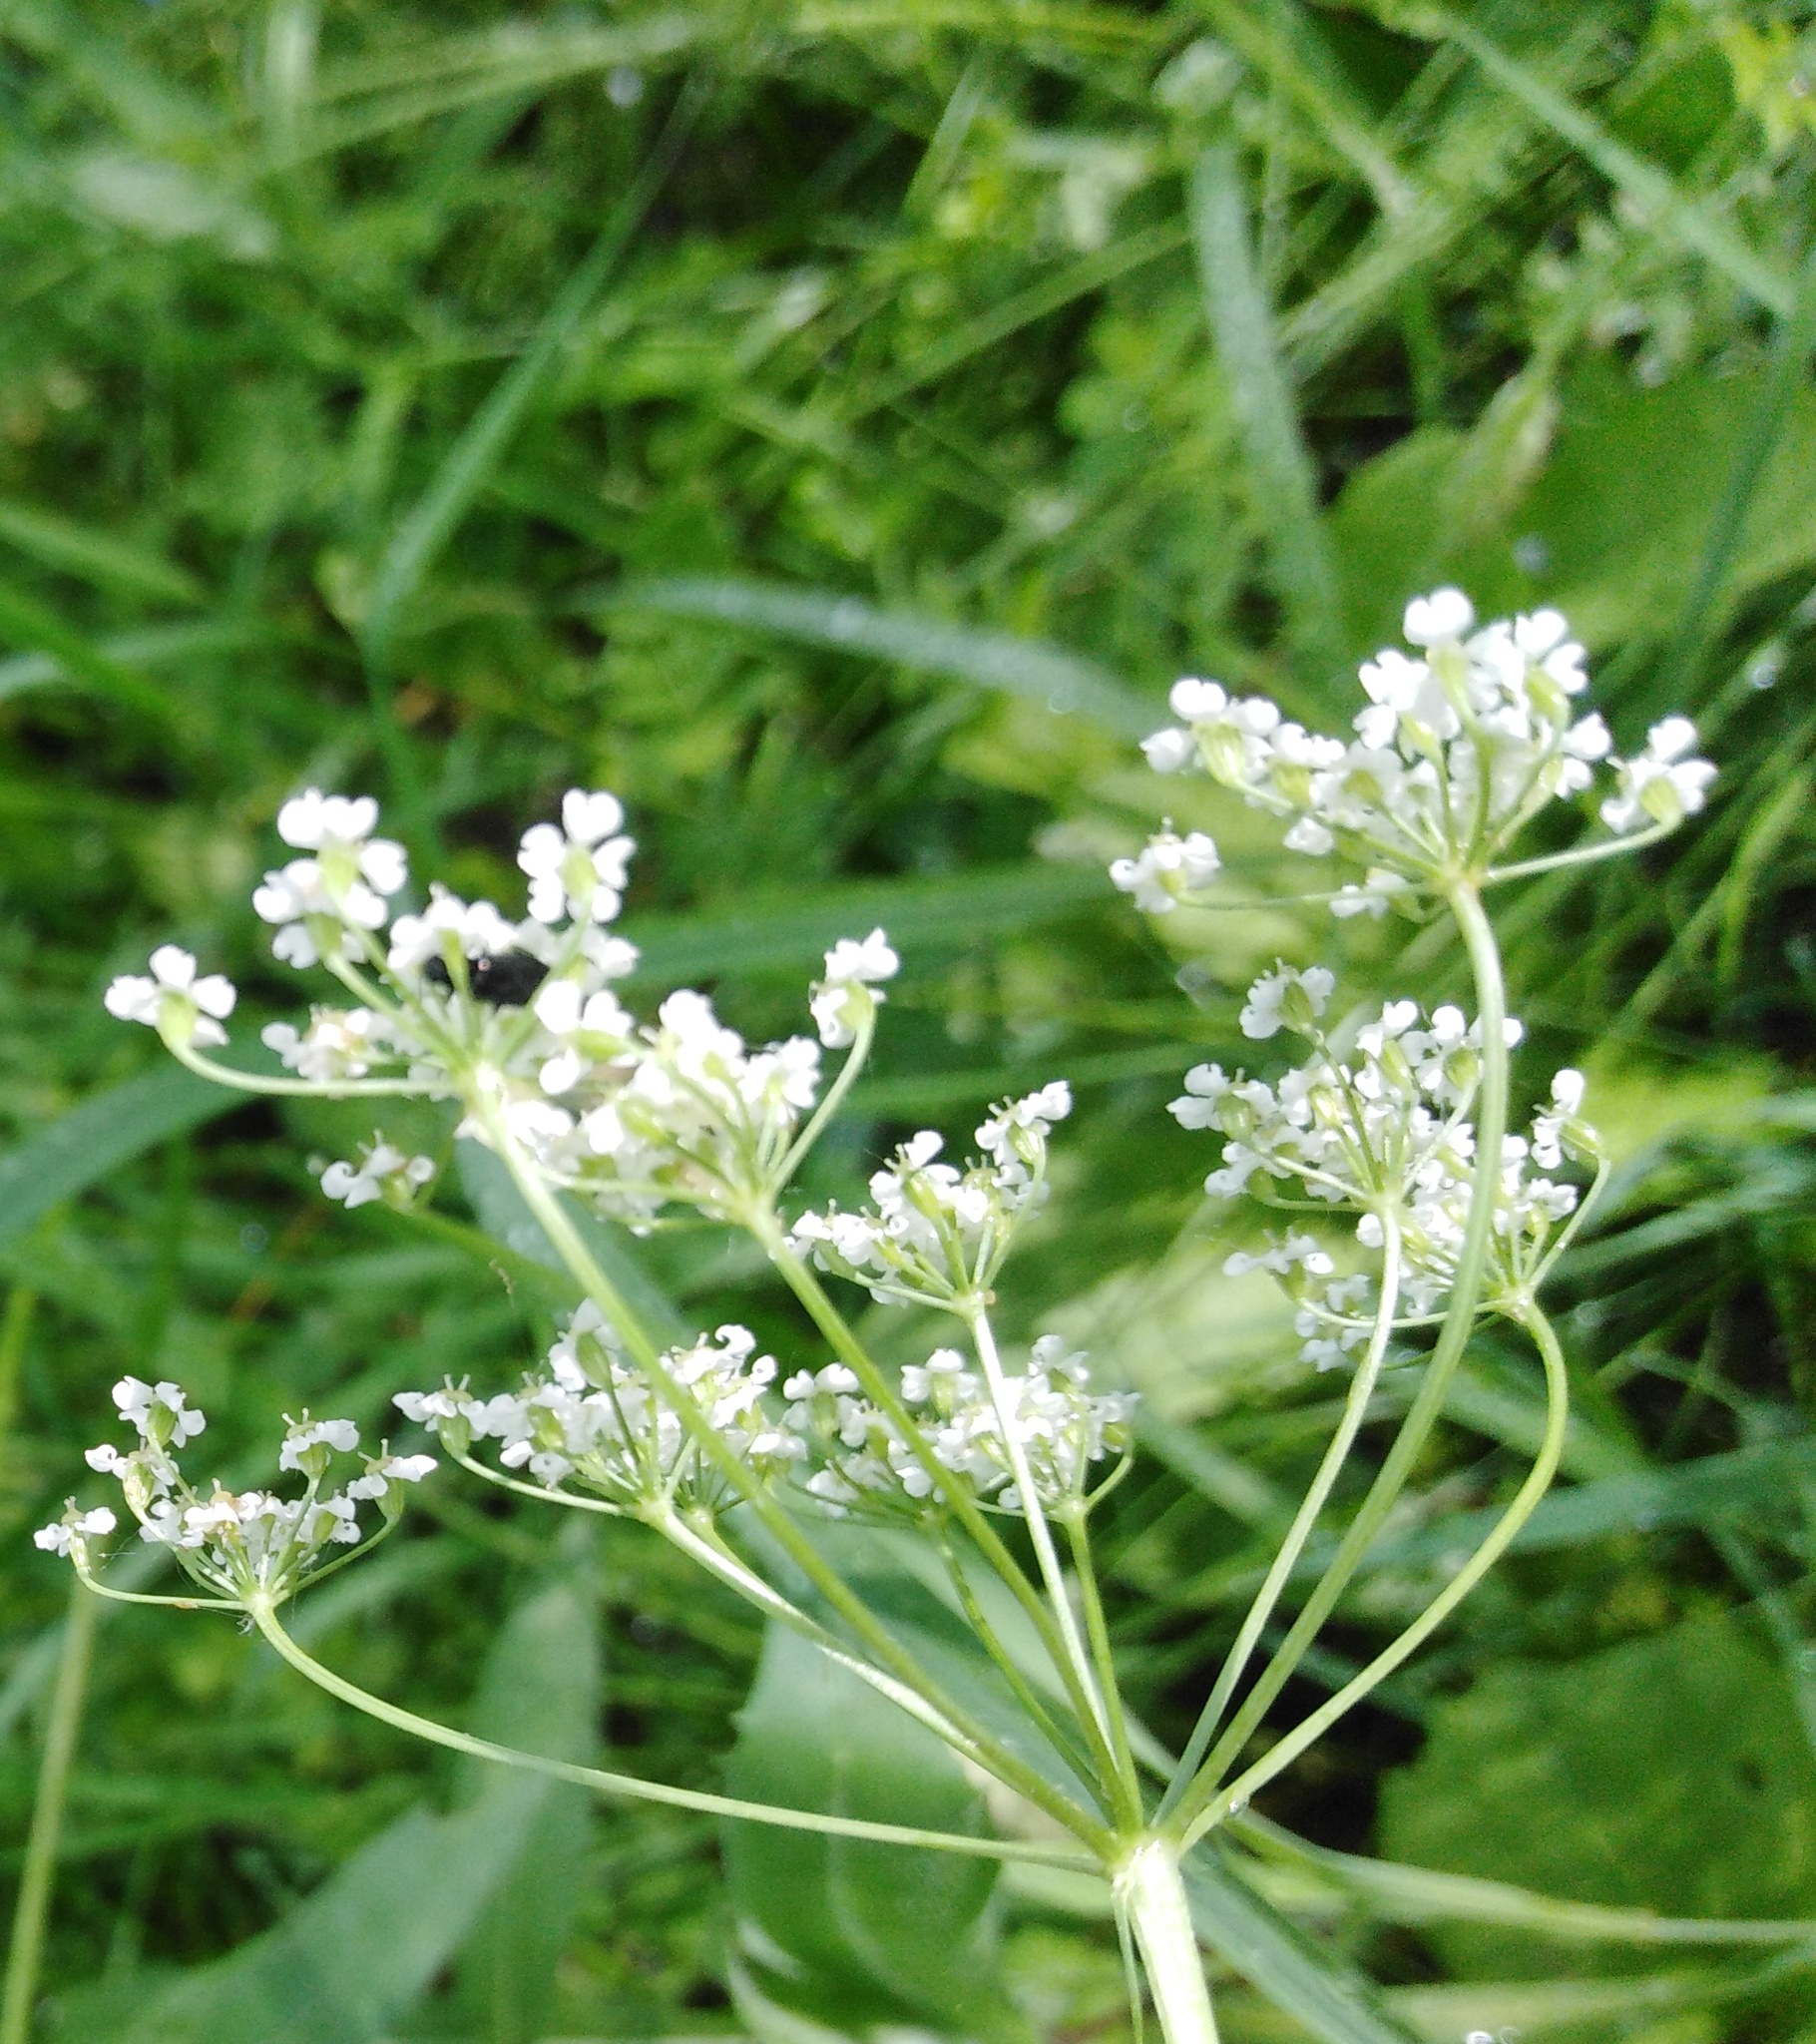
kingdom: Plantae
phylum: Tracheophyta
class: Magnoliopsida
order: Apiales
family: Apiaceae
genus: Carum
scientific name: Carum carvi
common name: Caraway
